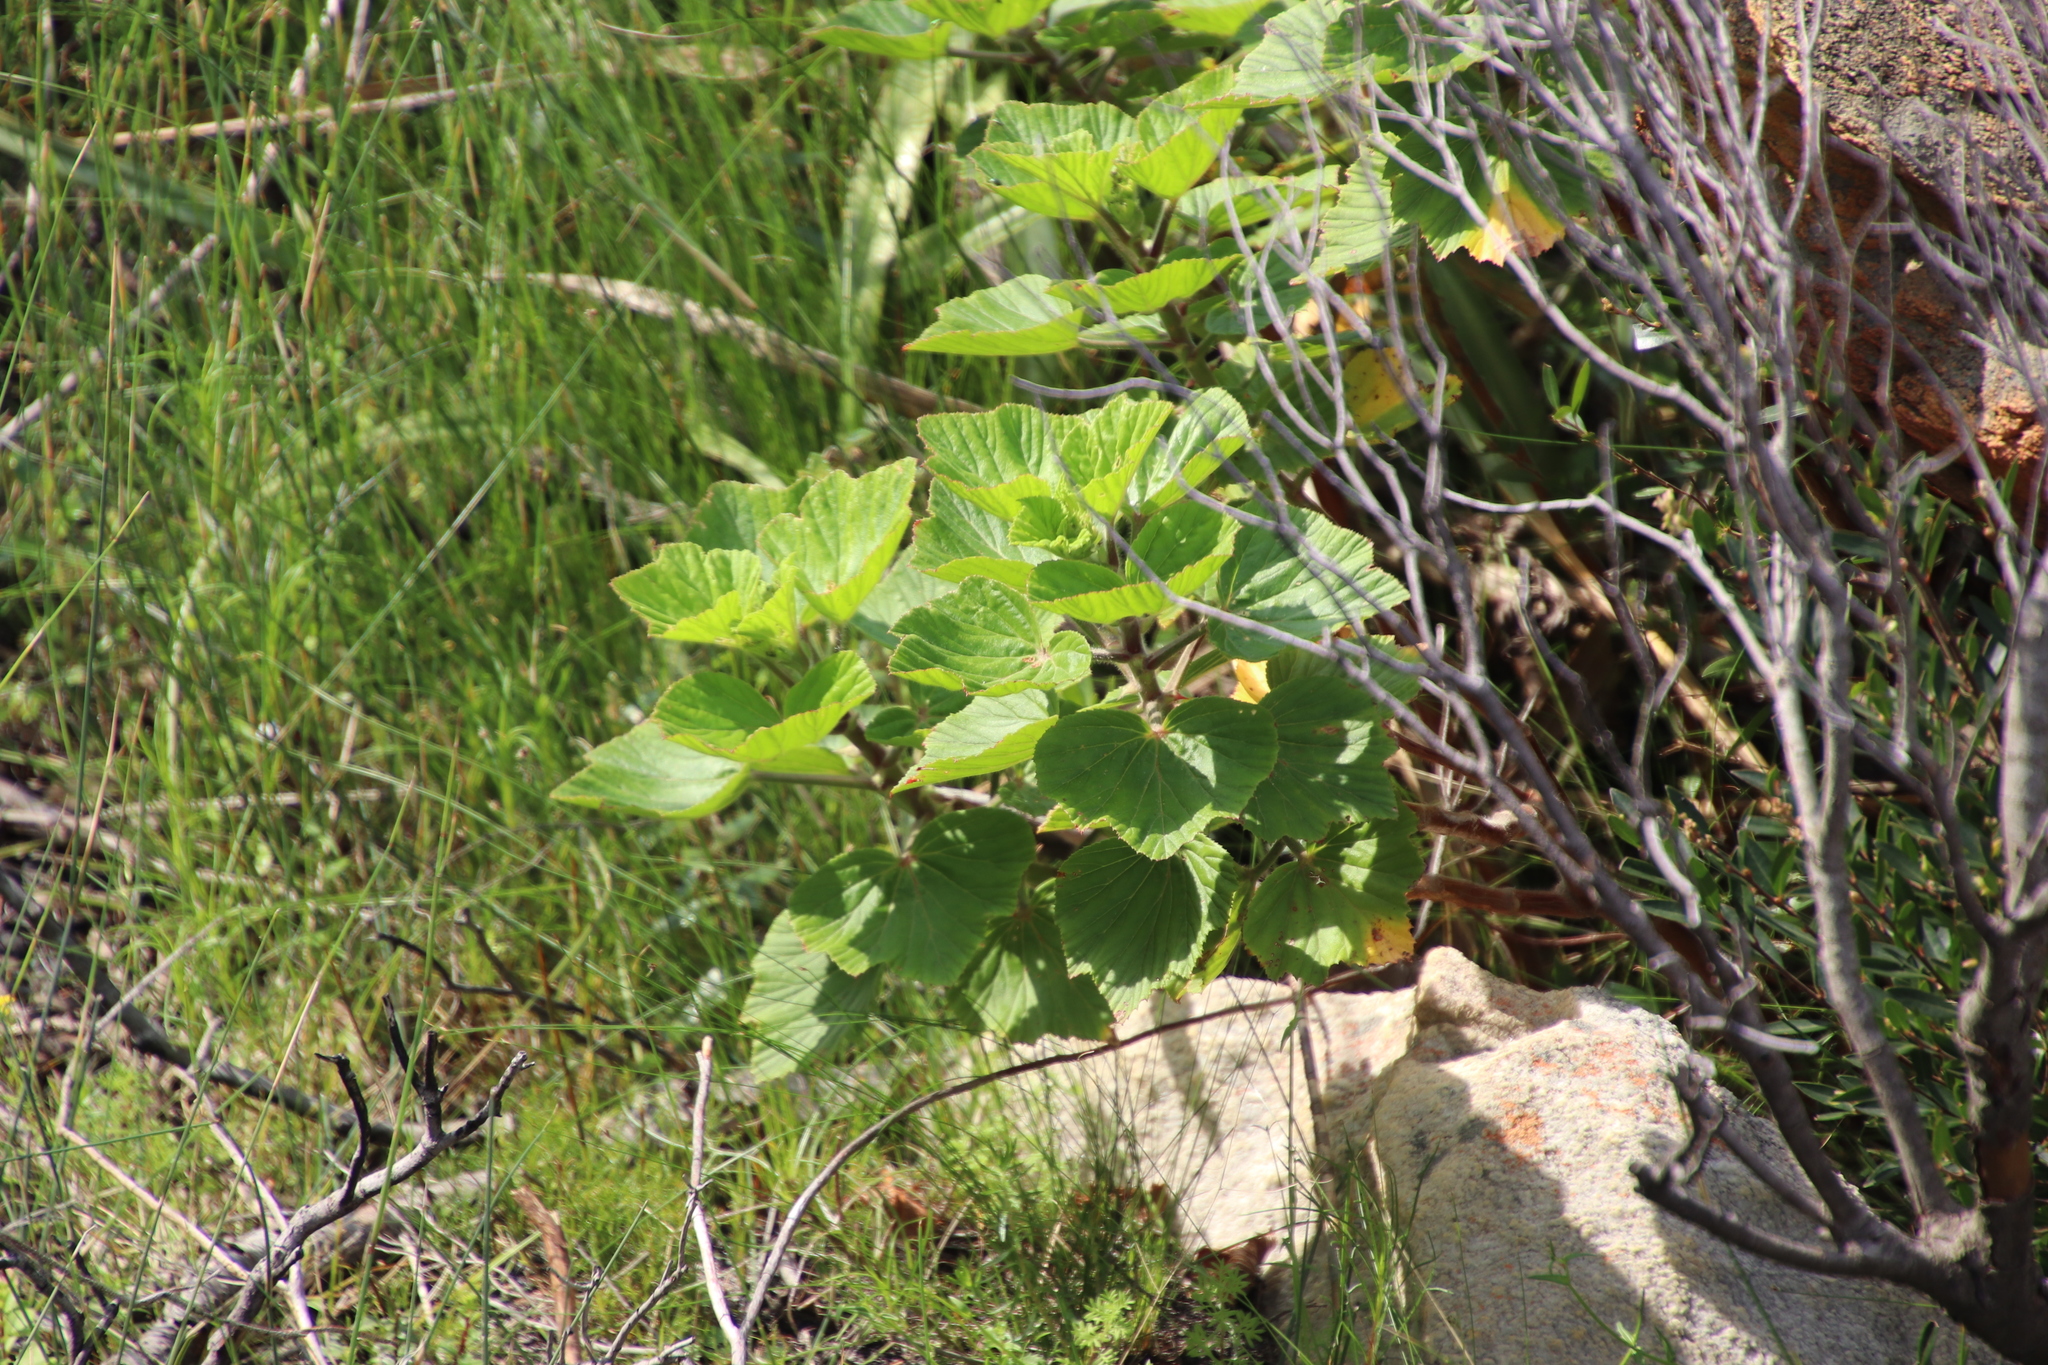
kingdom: Plantae
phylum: Tracheophyta
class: Magnoliopsida
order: Geraniales
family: Geraniaceae
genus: Pelargonium
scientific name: Pelargonium cucullatum
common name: Tree pelargonium
